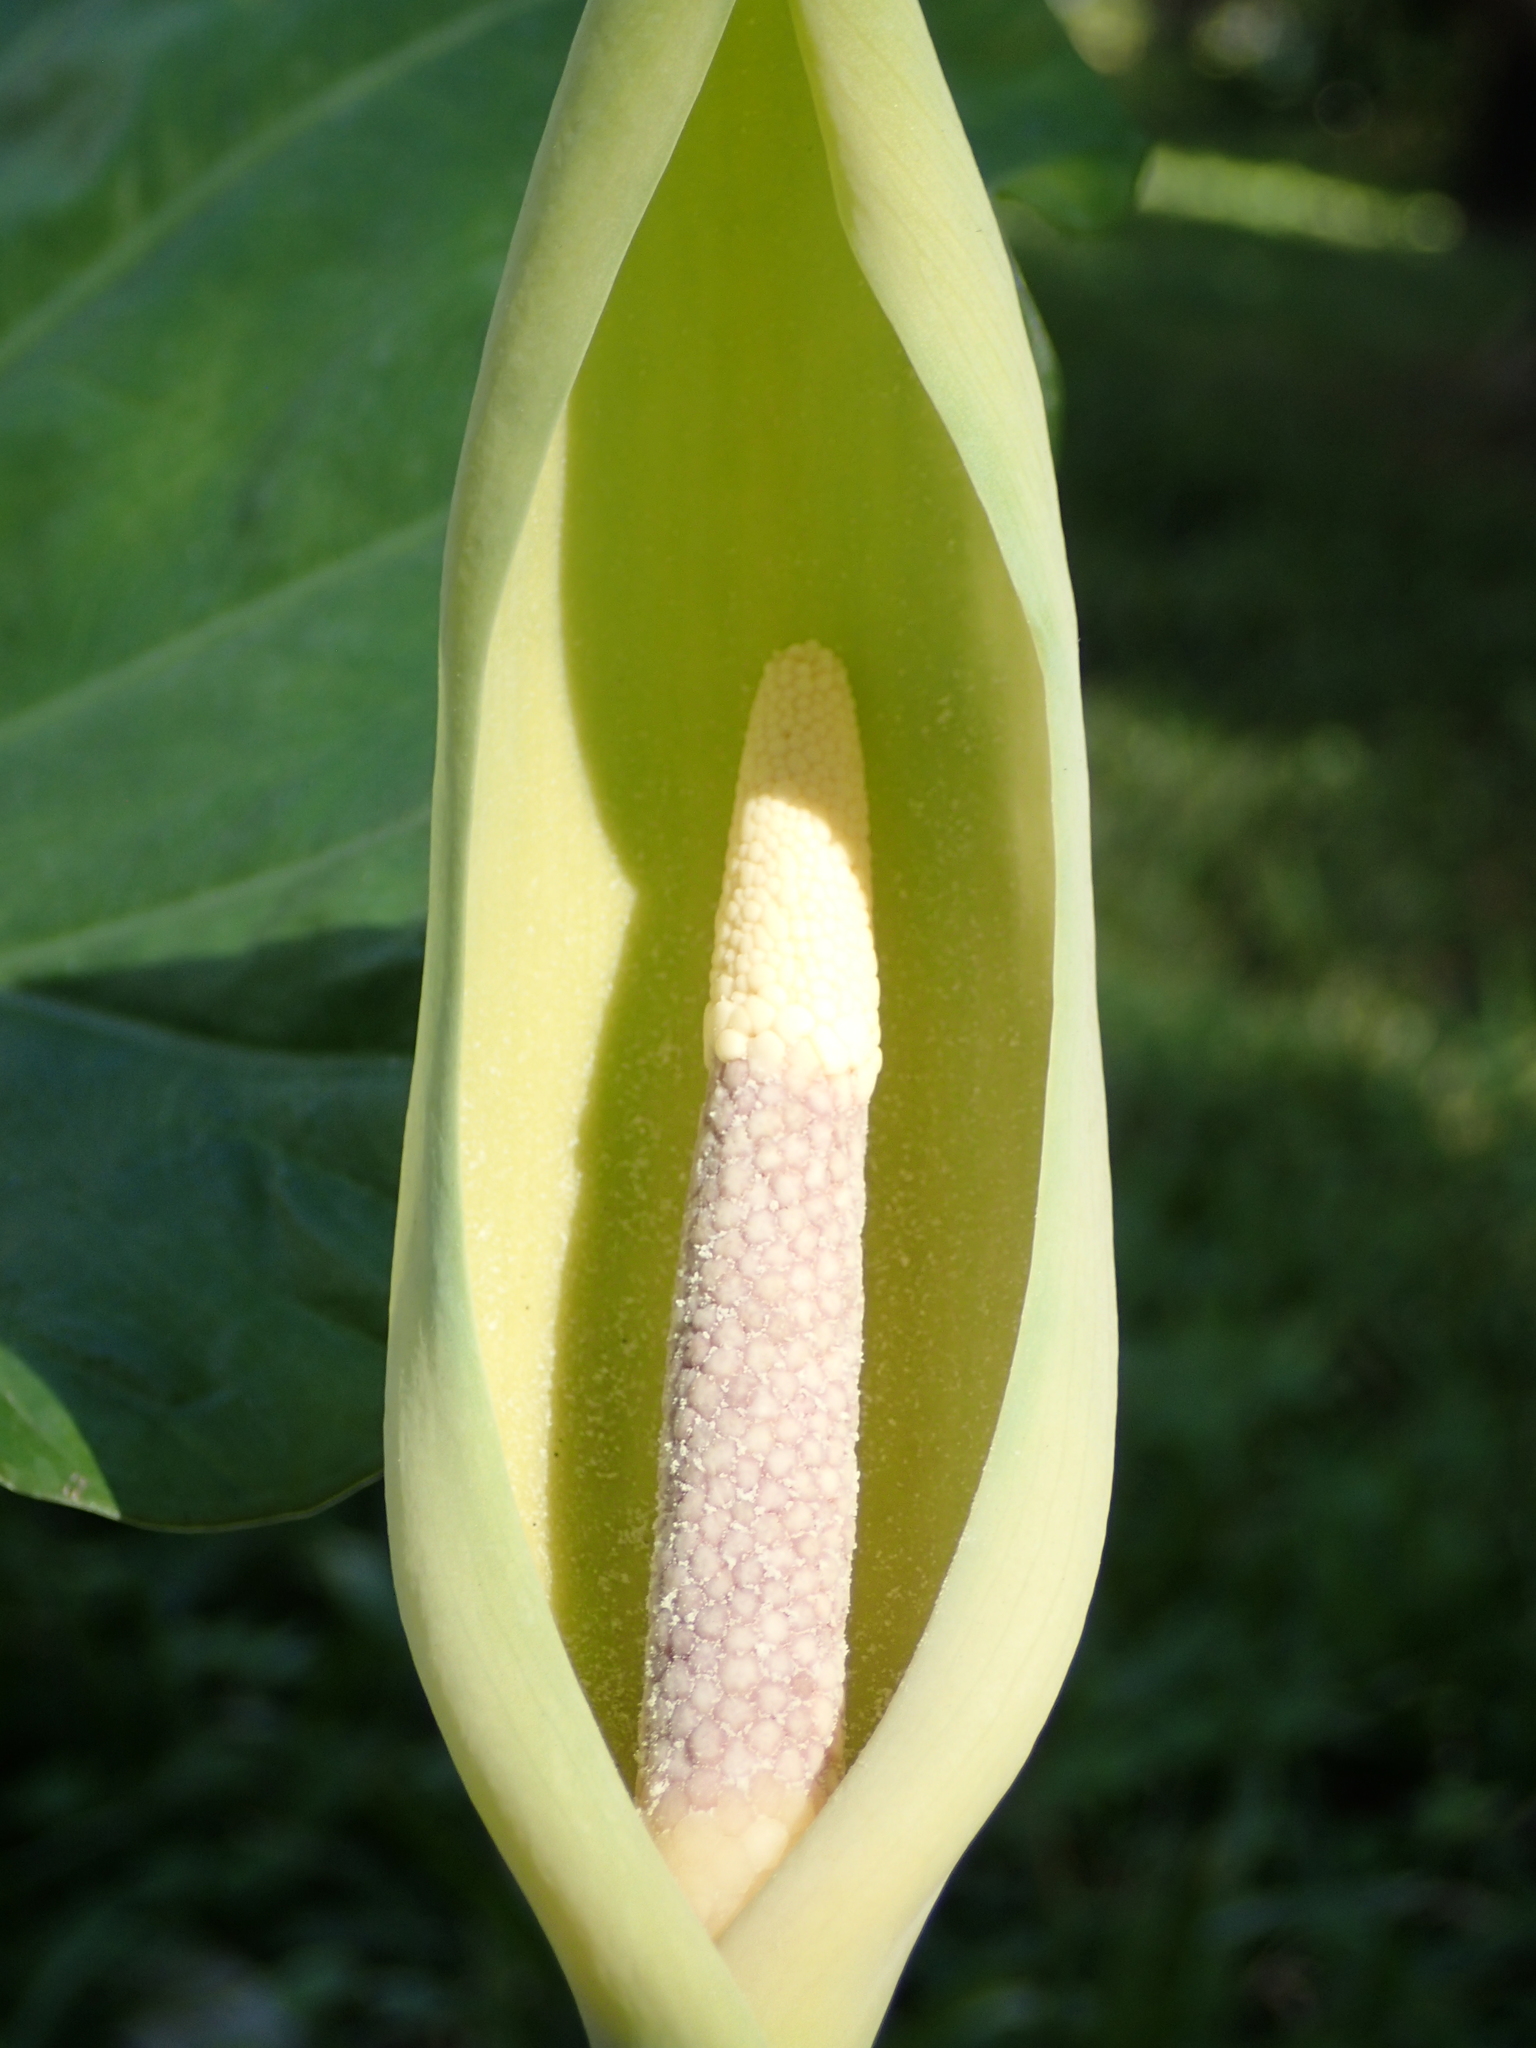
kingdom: Plantae
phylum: Tracheophyta
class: Liliopsida
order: Alismatales
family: Araceae
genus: Alocasia
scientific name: Alocasia odora
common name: Asian taro
